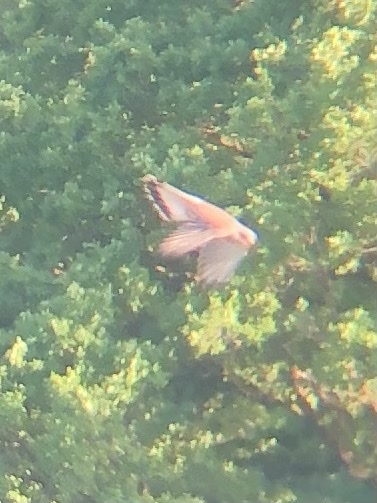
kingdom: Animalia
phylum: Chordata
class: Aves
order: Falconiformes
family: Falconidae
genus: Falco
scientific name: Falco tinnunculus
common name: Common kestrel
